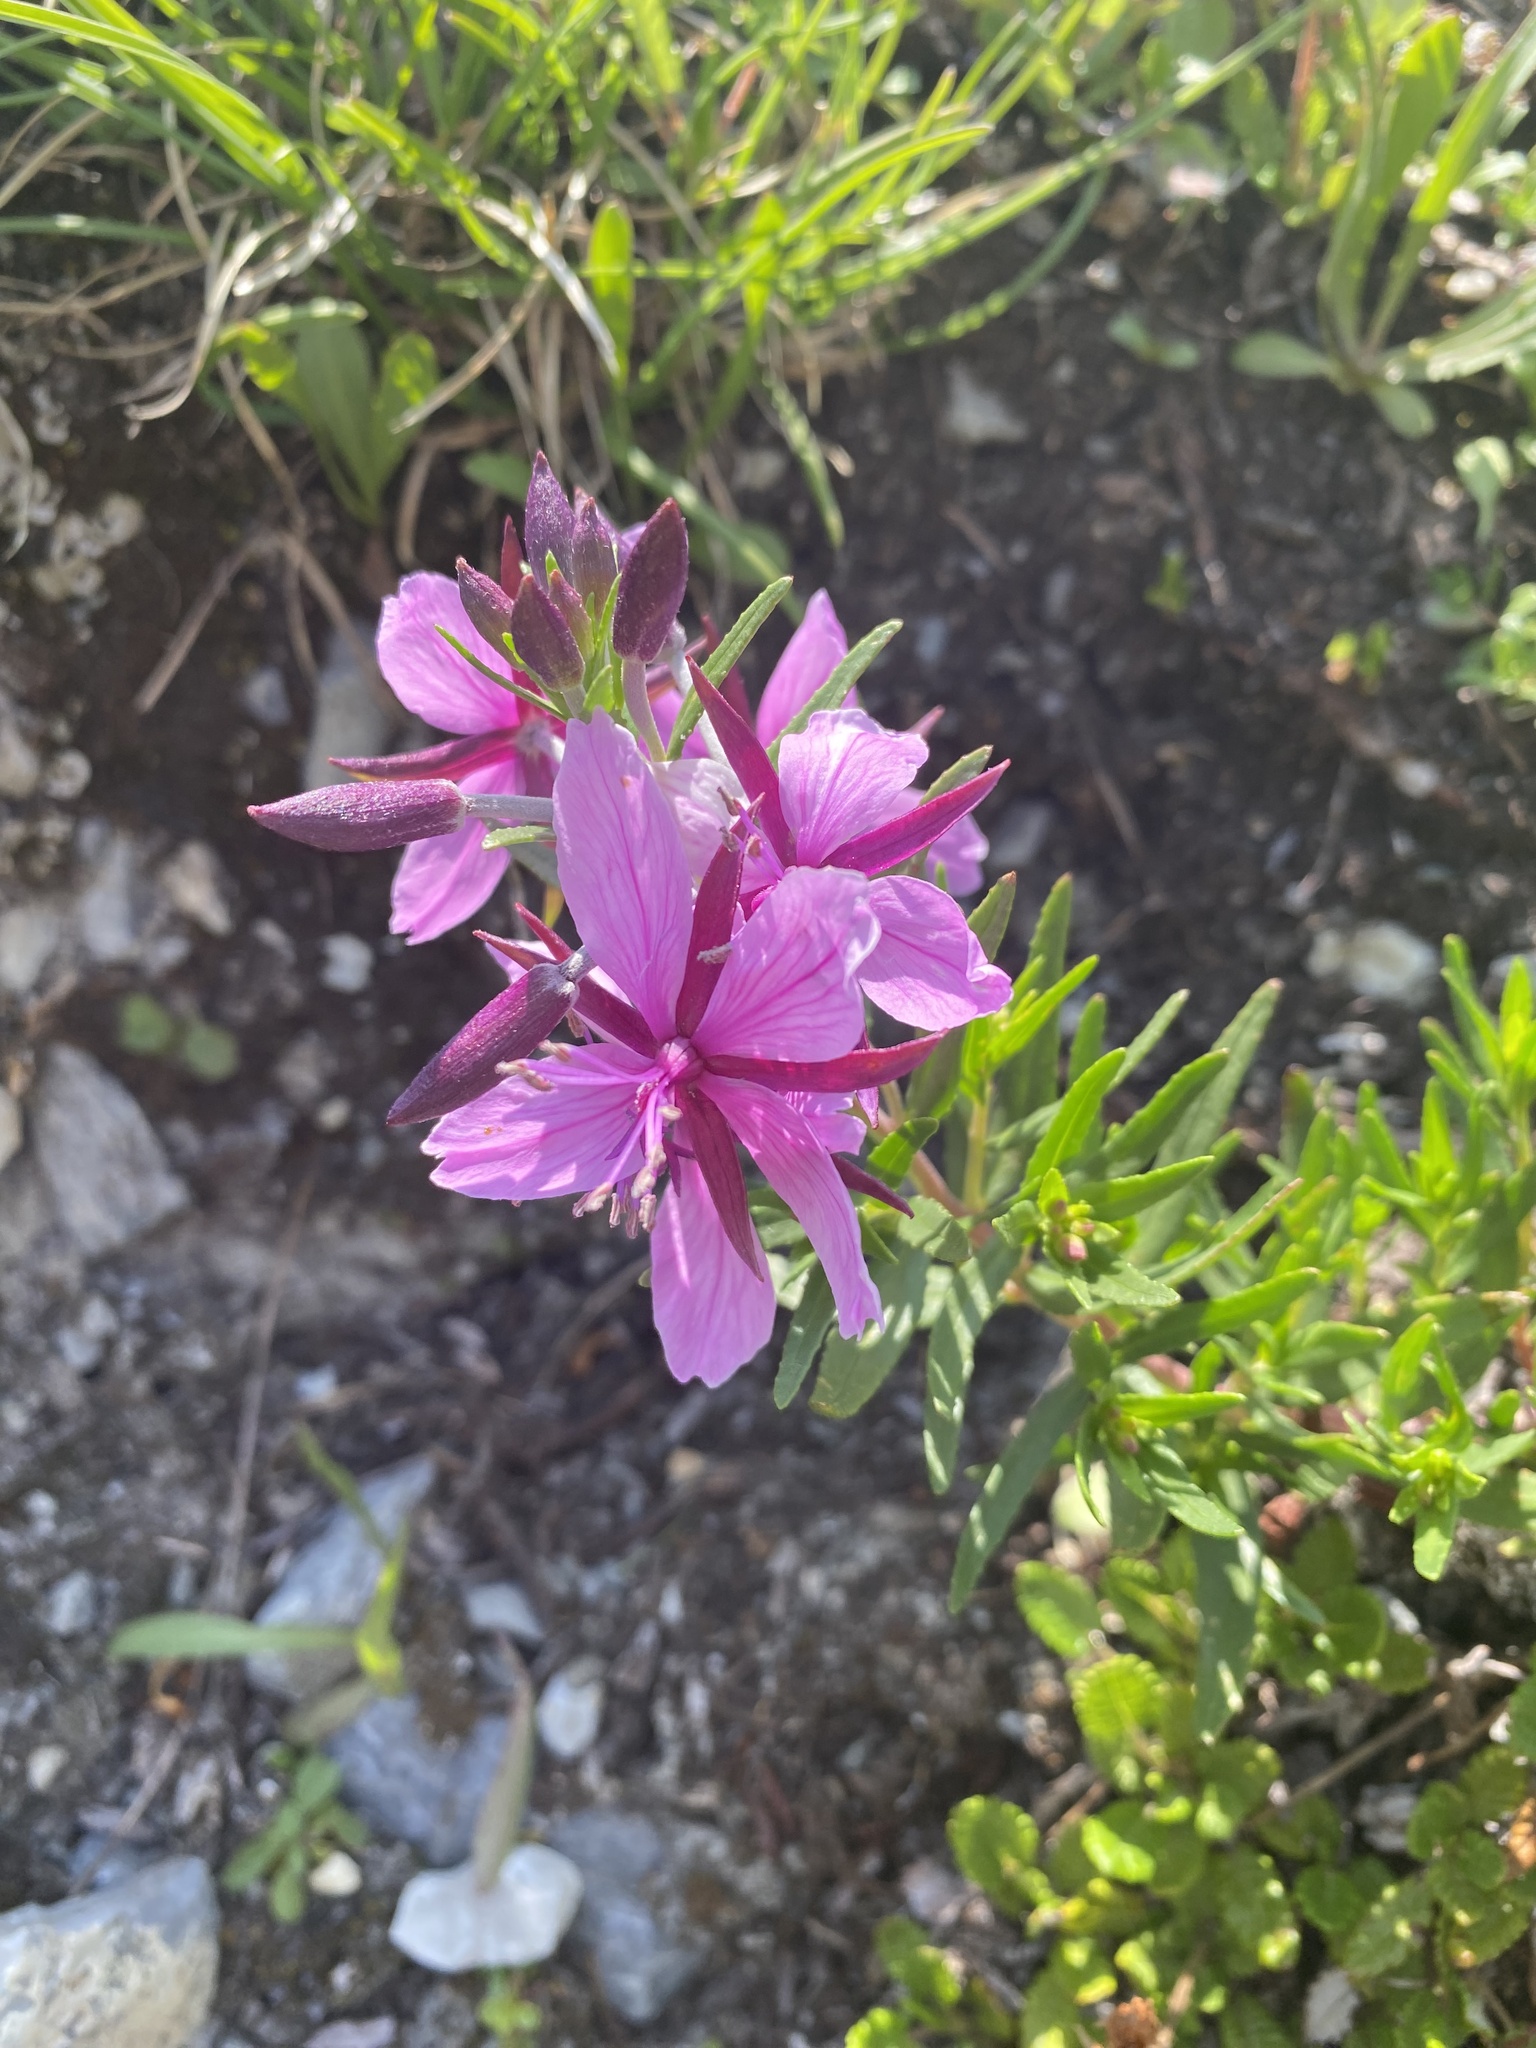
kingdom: Plantae
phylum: Tracheophyta
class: Magnoliopsida
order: Myrtales
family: Onagraceae
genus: Chamaenerion
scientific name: Chamaenerion fleischeri
